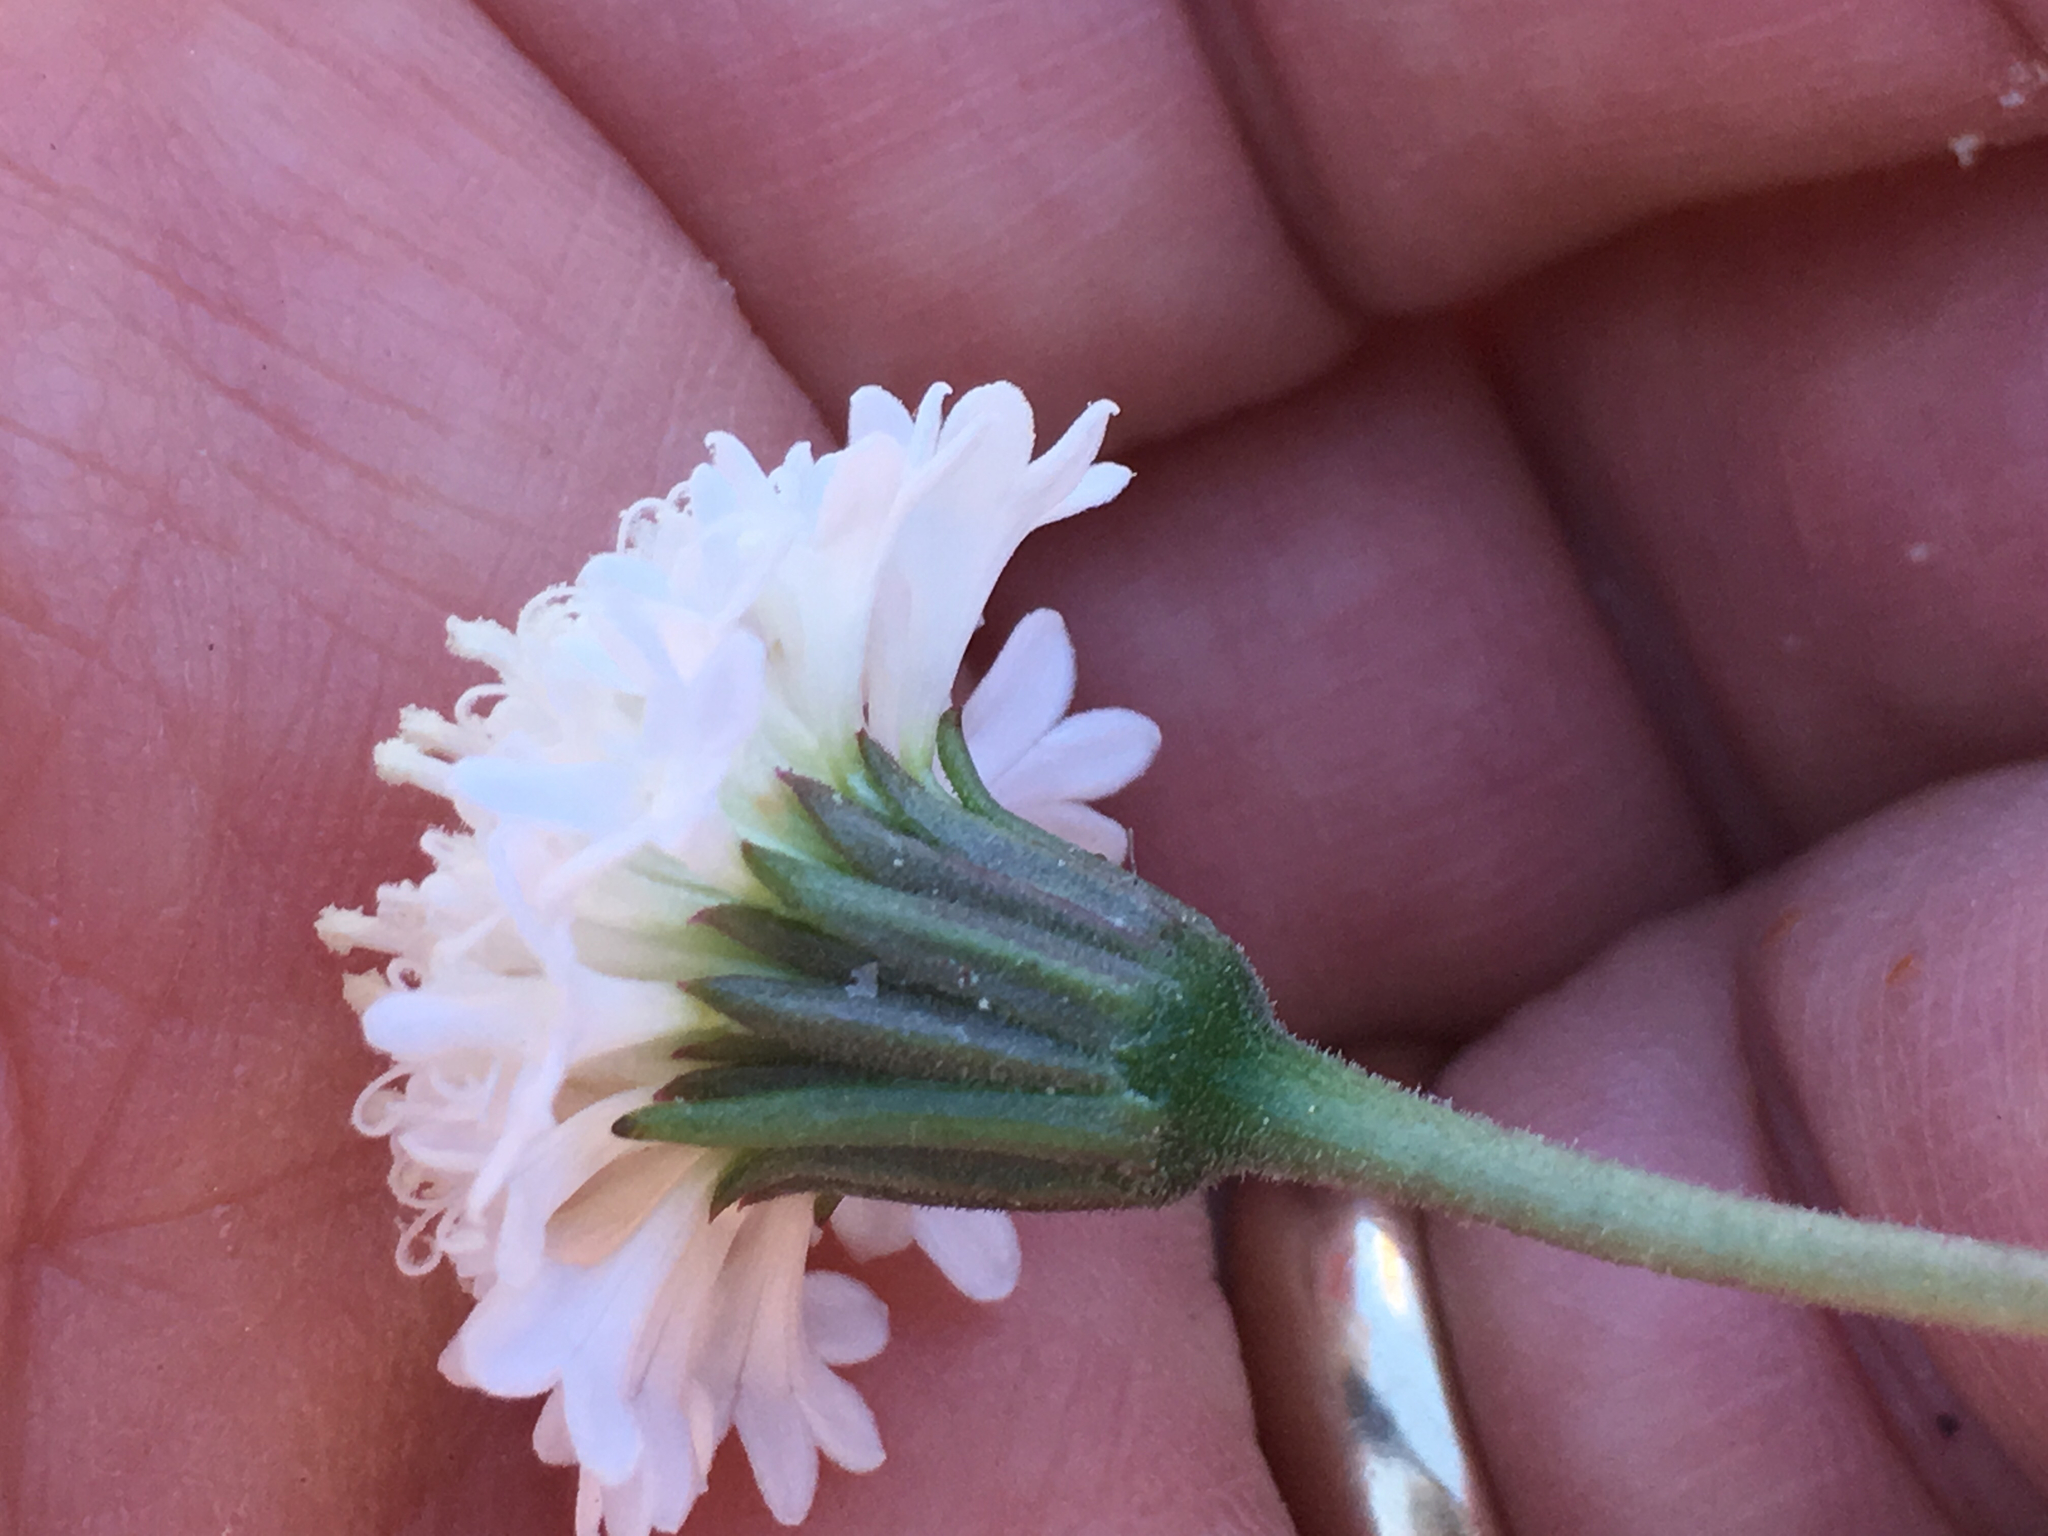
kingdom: Plantae
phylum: Tracheophyta
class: Magnoliopsida
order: Asterales
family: Asteraceae
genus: Chaenactis
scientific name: Chaenactis fremontii
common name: Fremont pincushion
